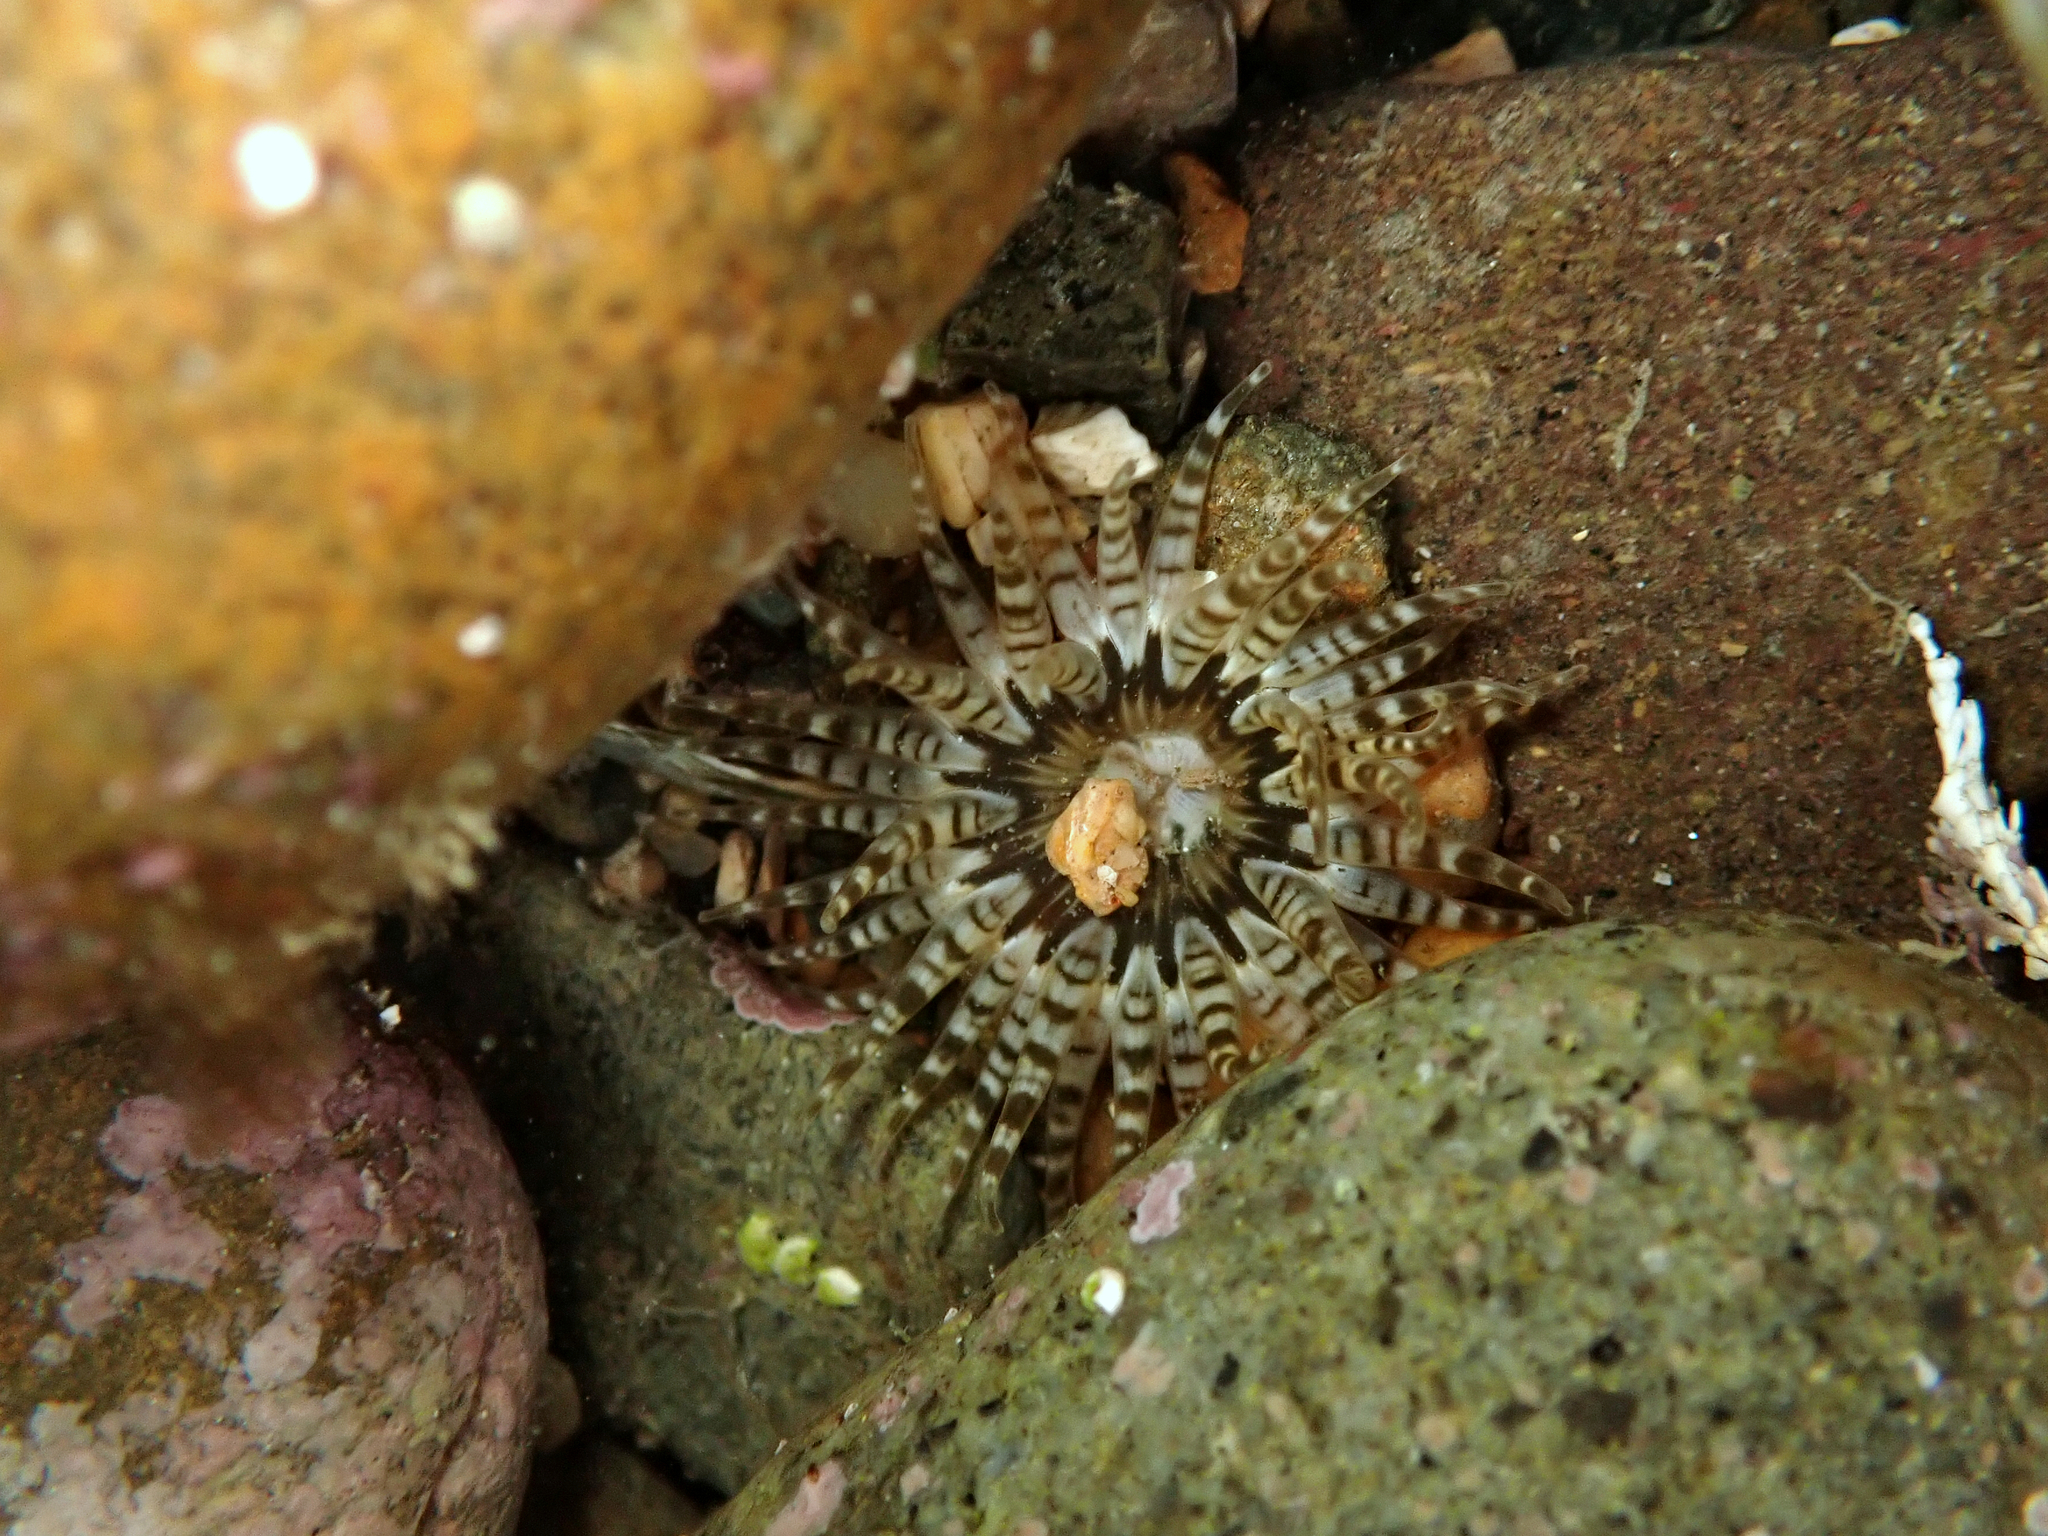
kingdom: Animalia
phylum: Cnidaria
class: Anthozoa
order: Actiniaria
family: Actiniidae
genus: Anthopleura
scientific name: Anthopleura rosea
